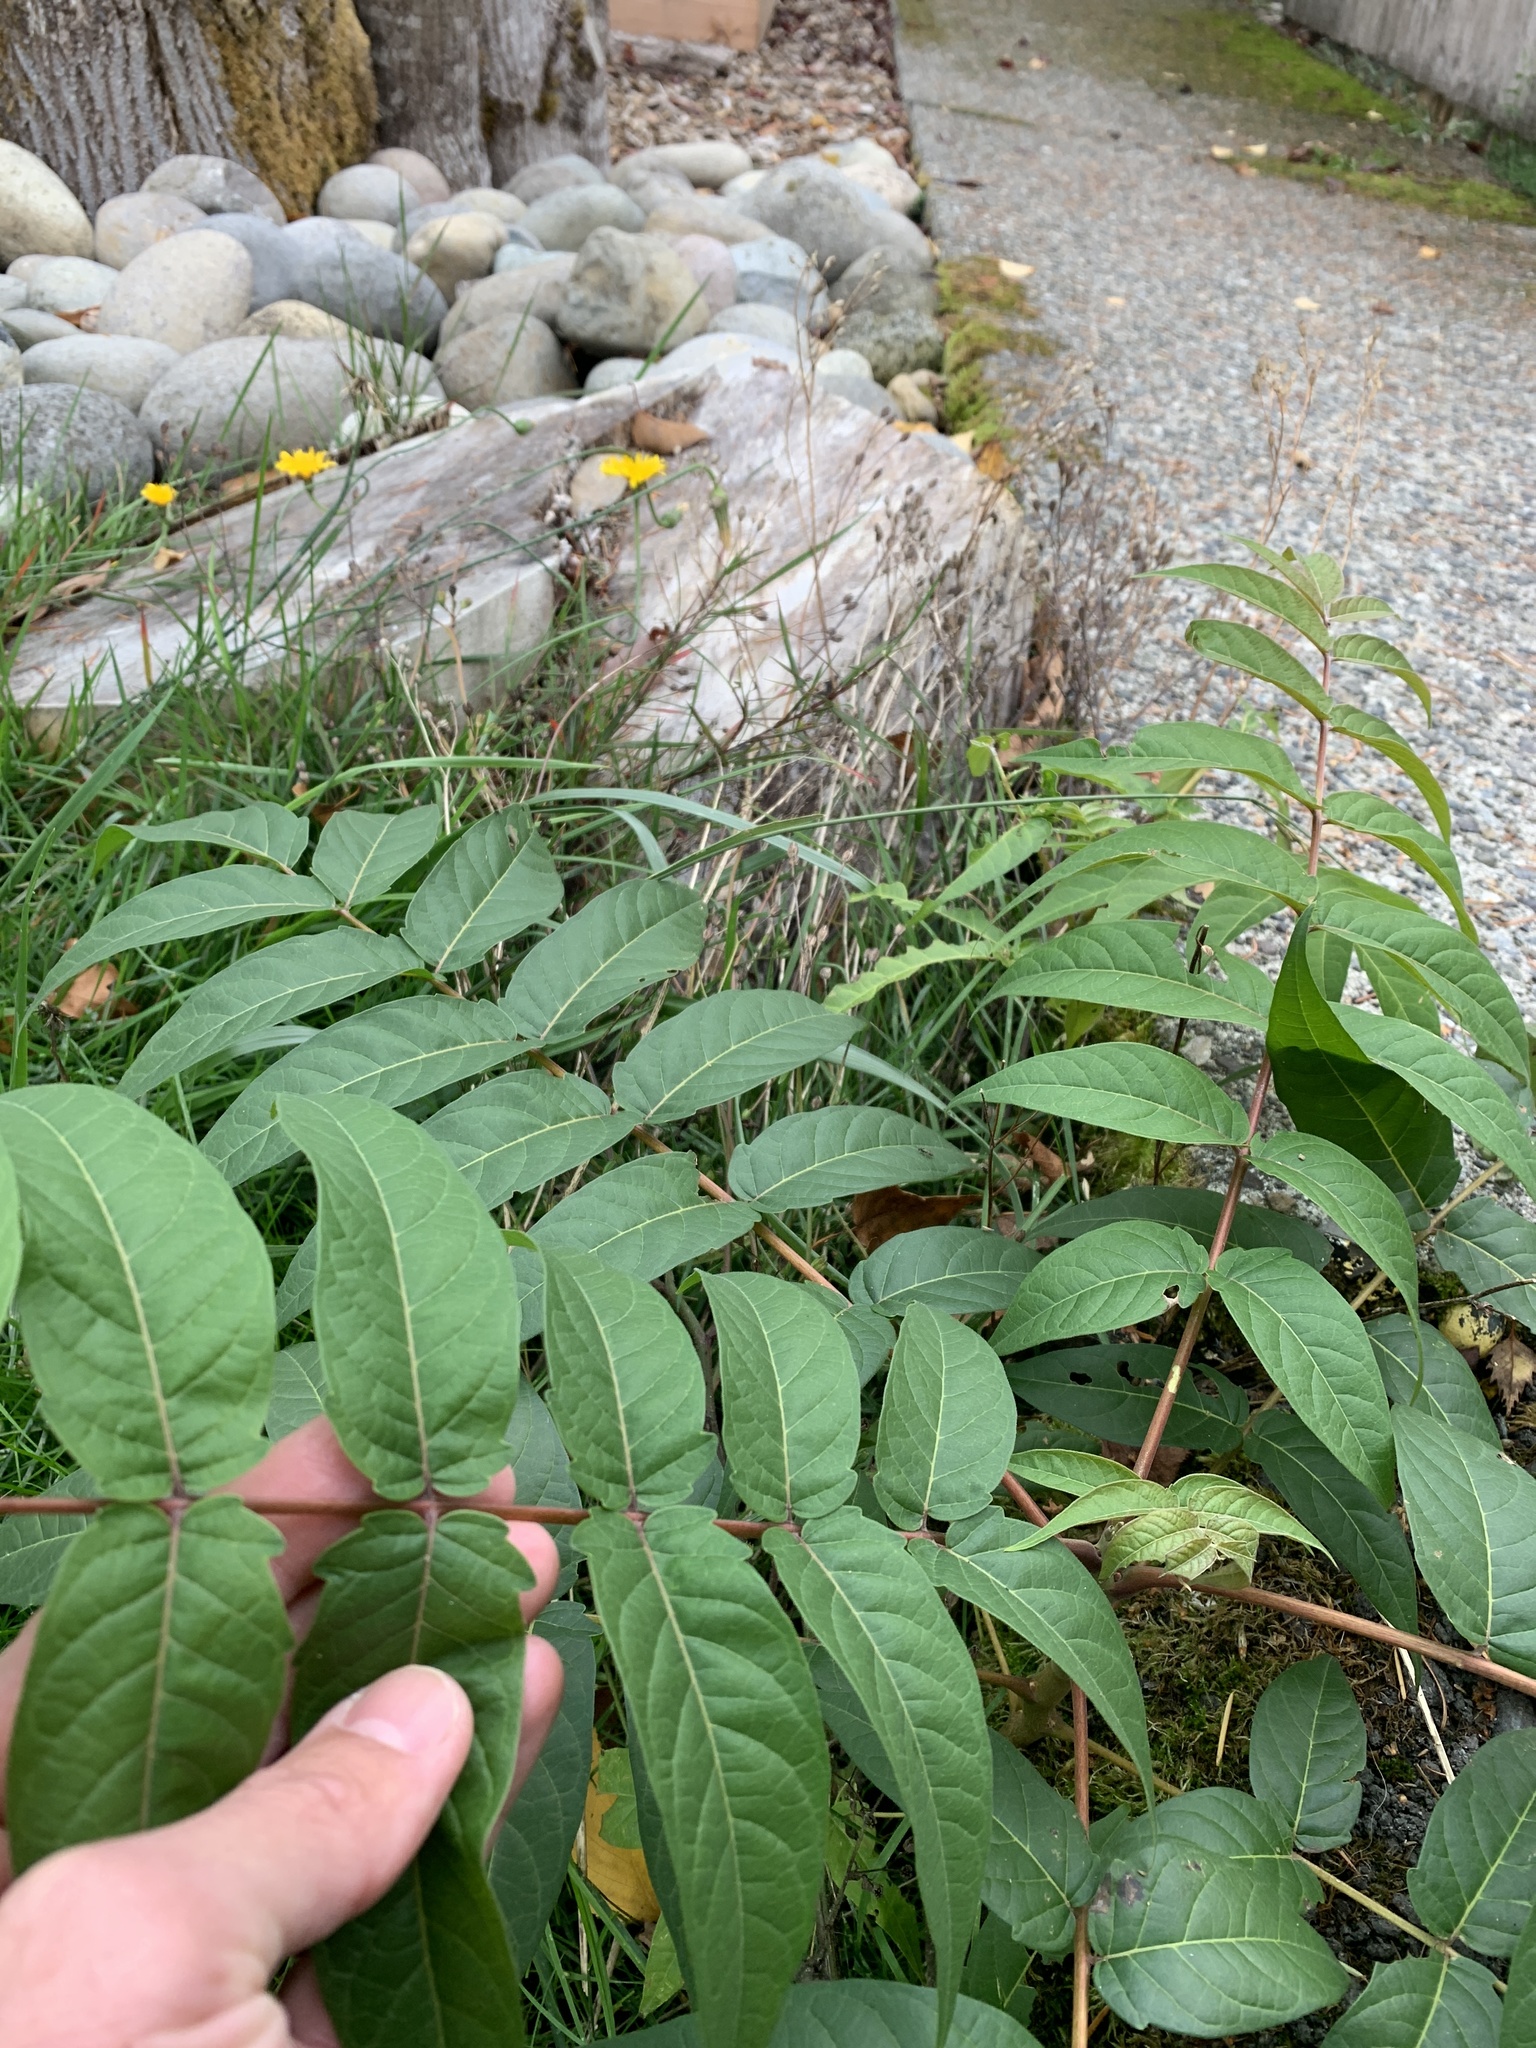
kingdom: Plantae
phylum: Tracheophyta
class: Magnoliopsida
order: Sapindales
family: Simaroubaceae
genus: Ailanthus
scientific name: Ailanthus altissima
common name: Tree-of-heaven
